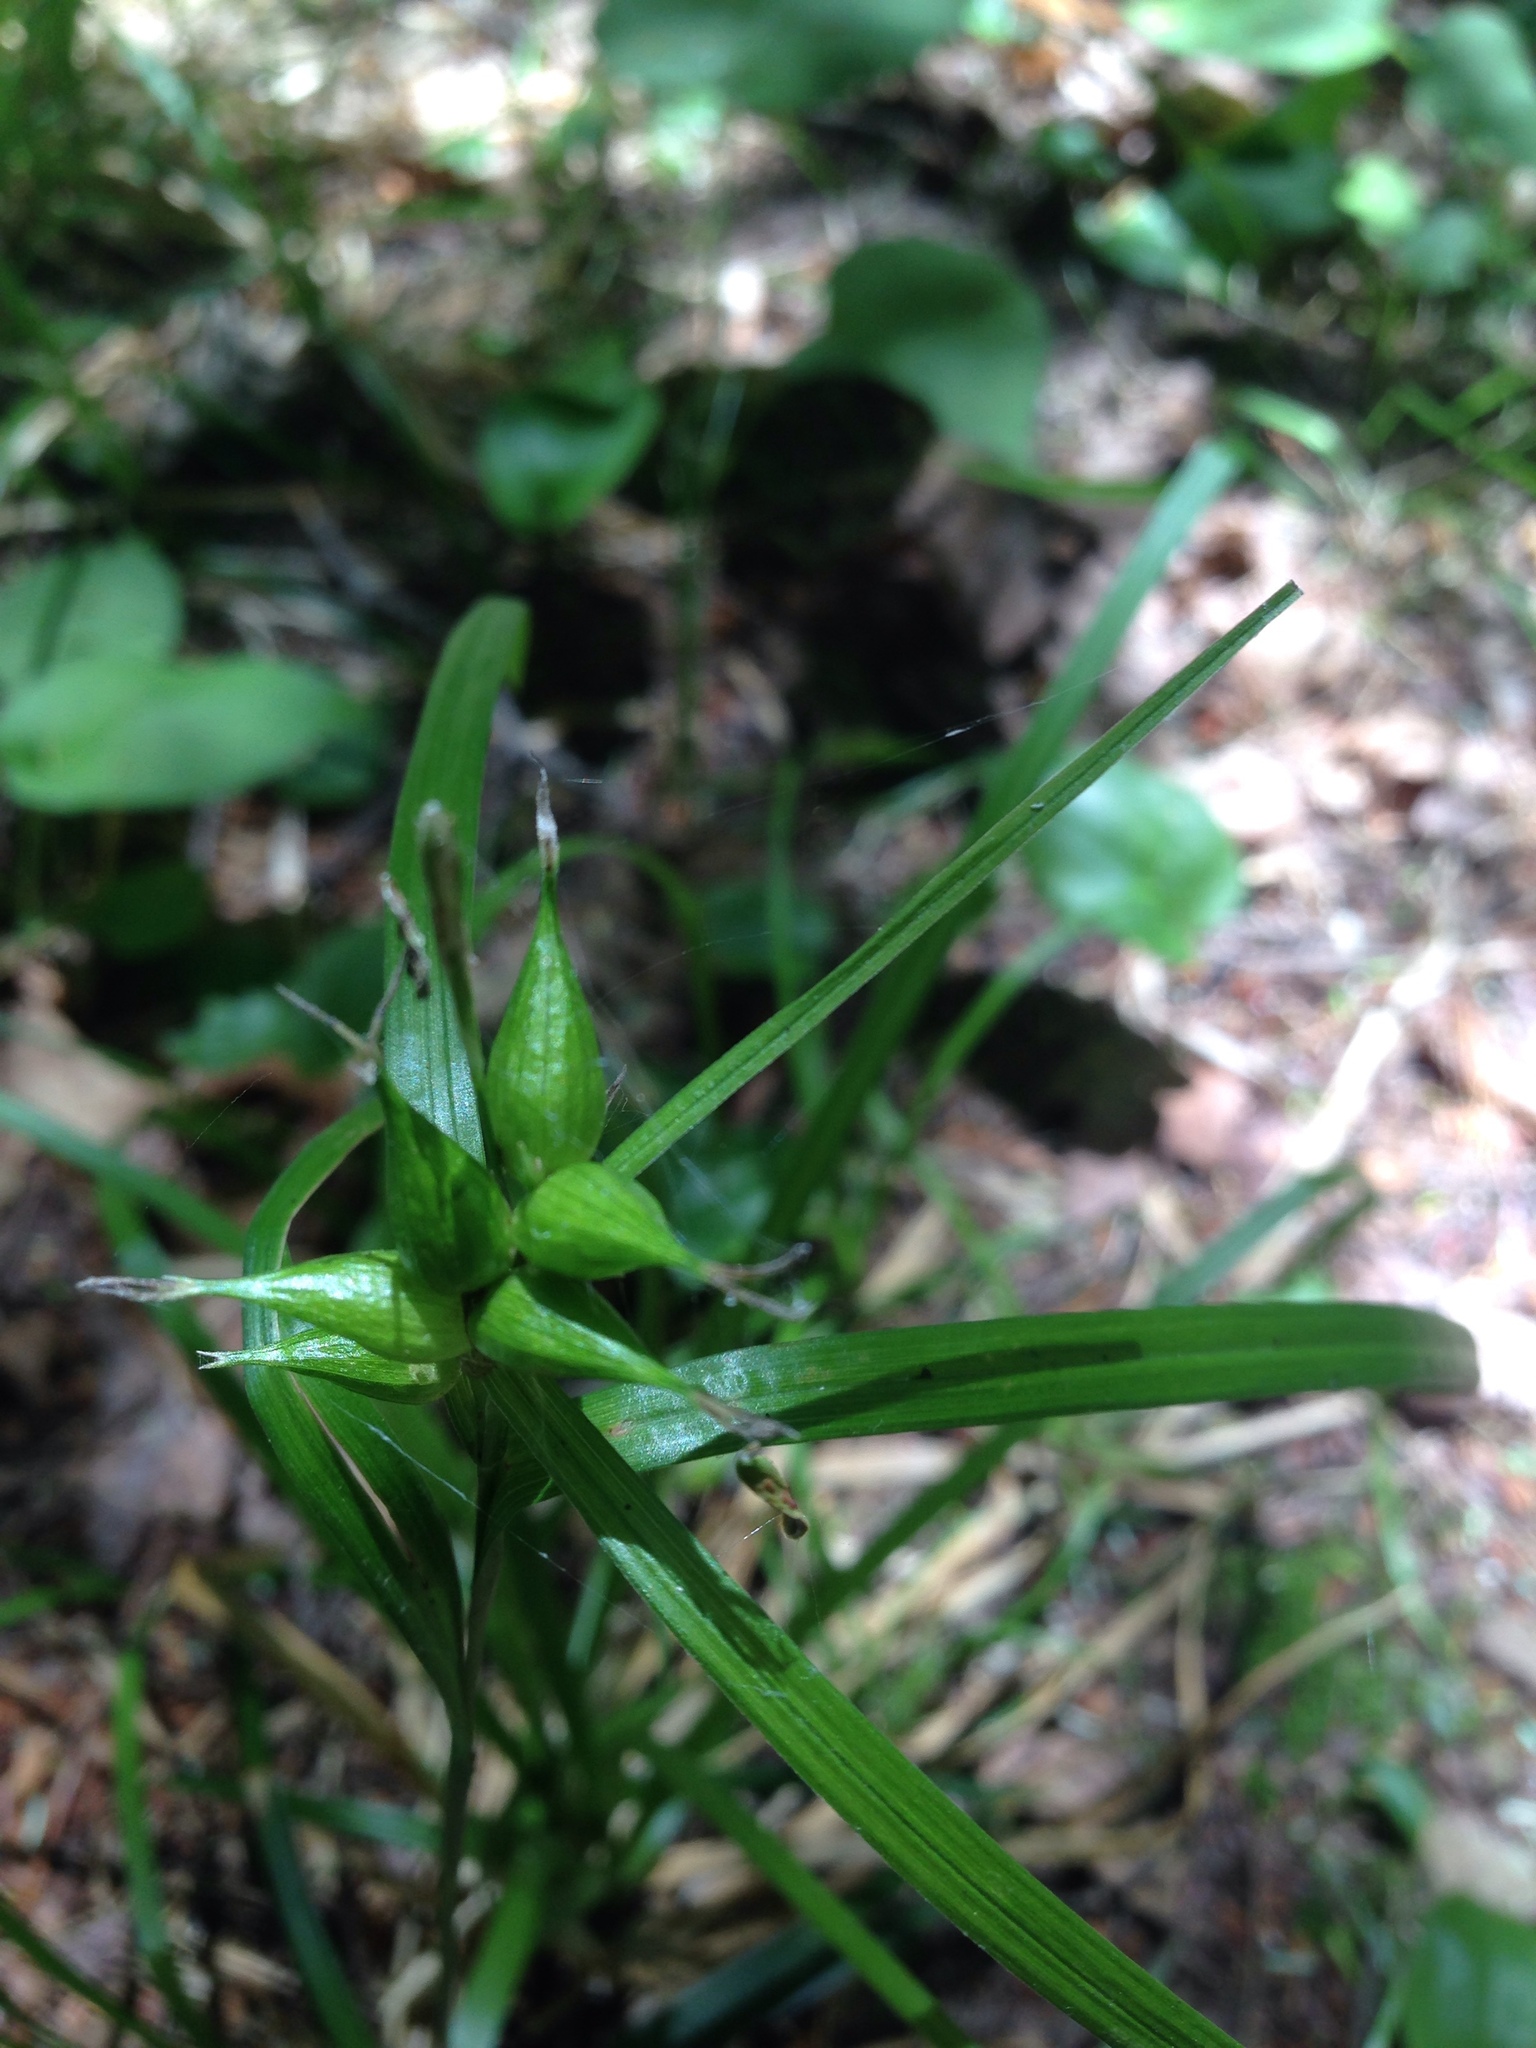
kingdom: Plantae
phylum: Tracheophyta
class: Liliopsida
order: Poales
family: Cyperaceae
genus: Carex
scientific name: Carex intumescens
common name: Greater bladder sedge
